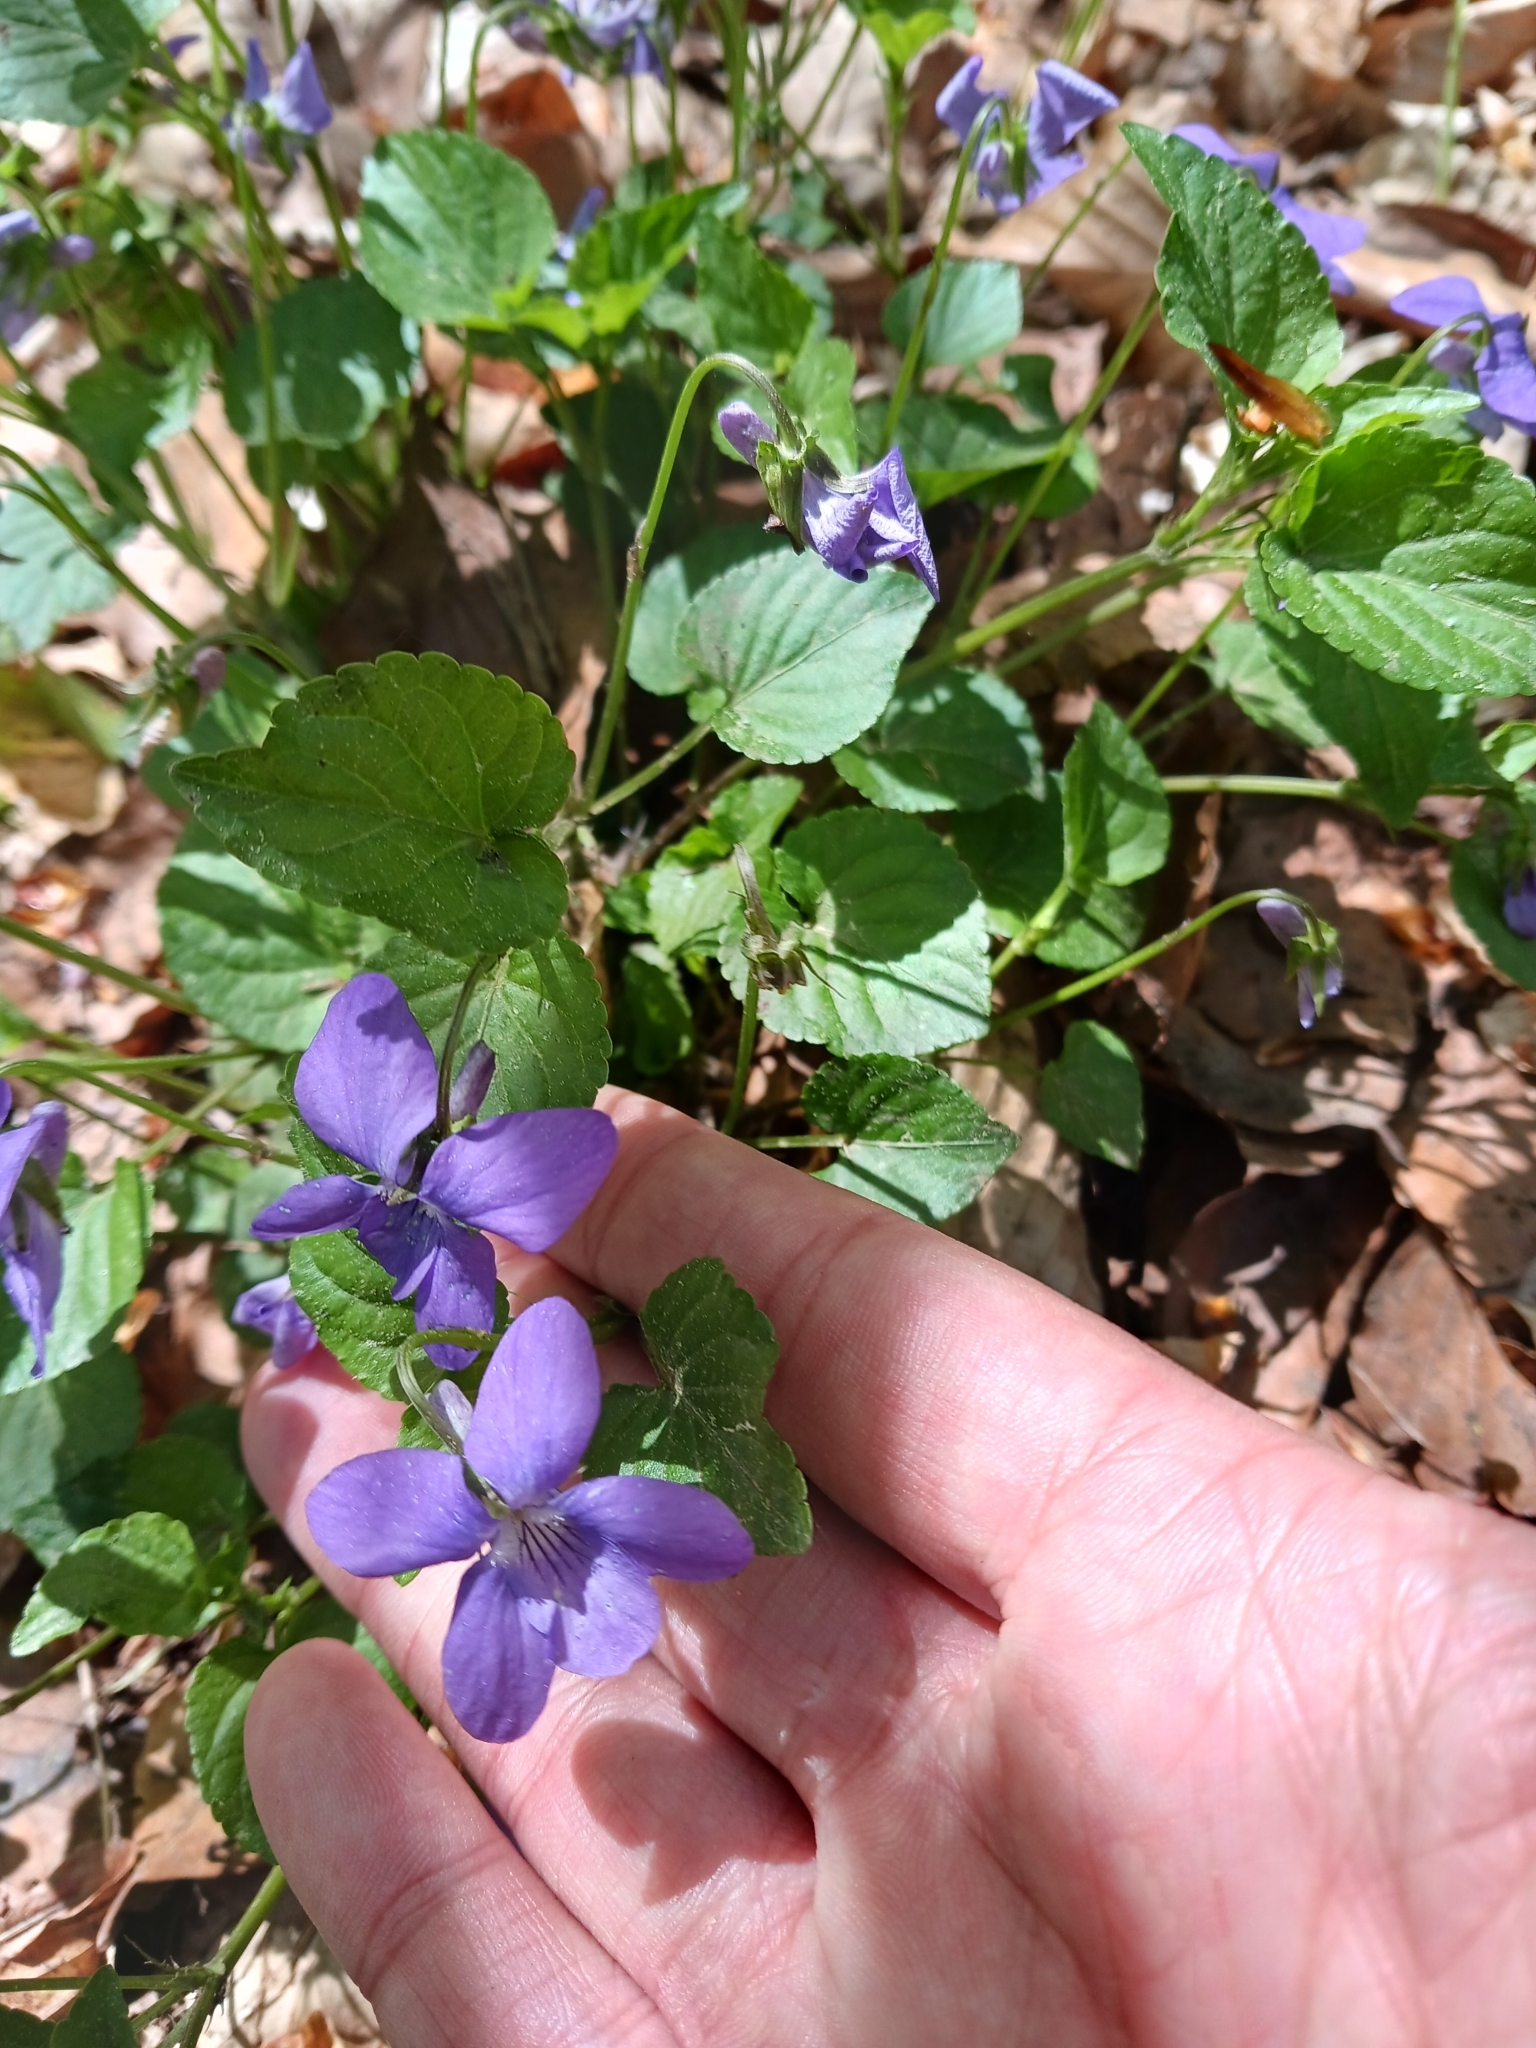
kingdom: Plantae
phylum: Tracheophyta
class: Magnoliopsida
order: Malpighiales
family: Violaceae
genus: Viola
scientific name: Viola reichenbachiana
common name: Early dog-violet
